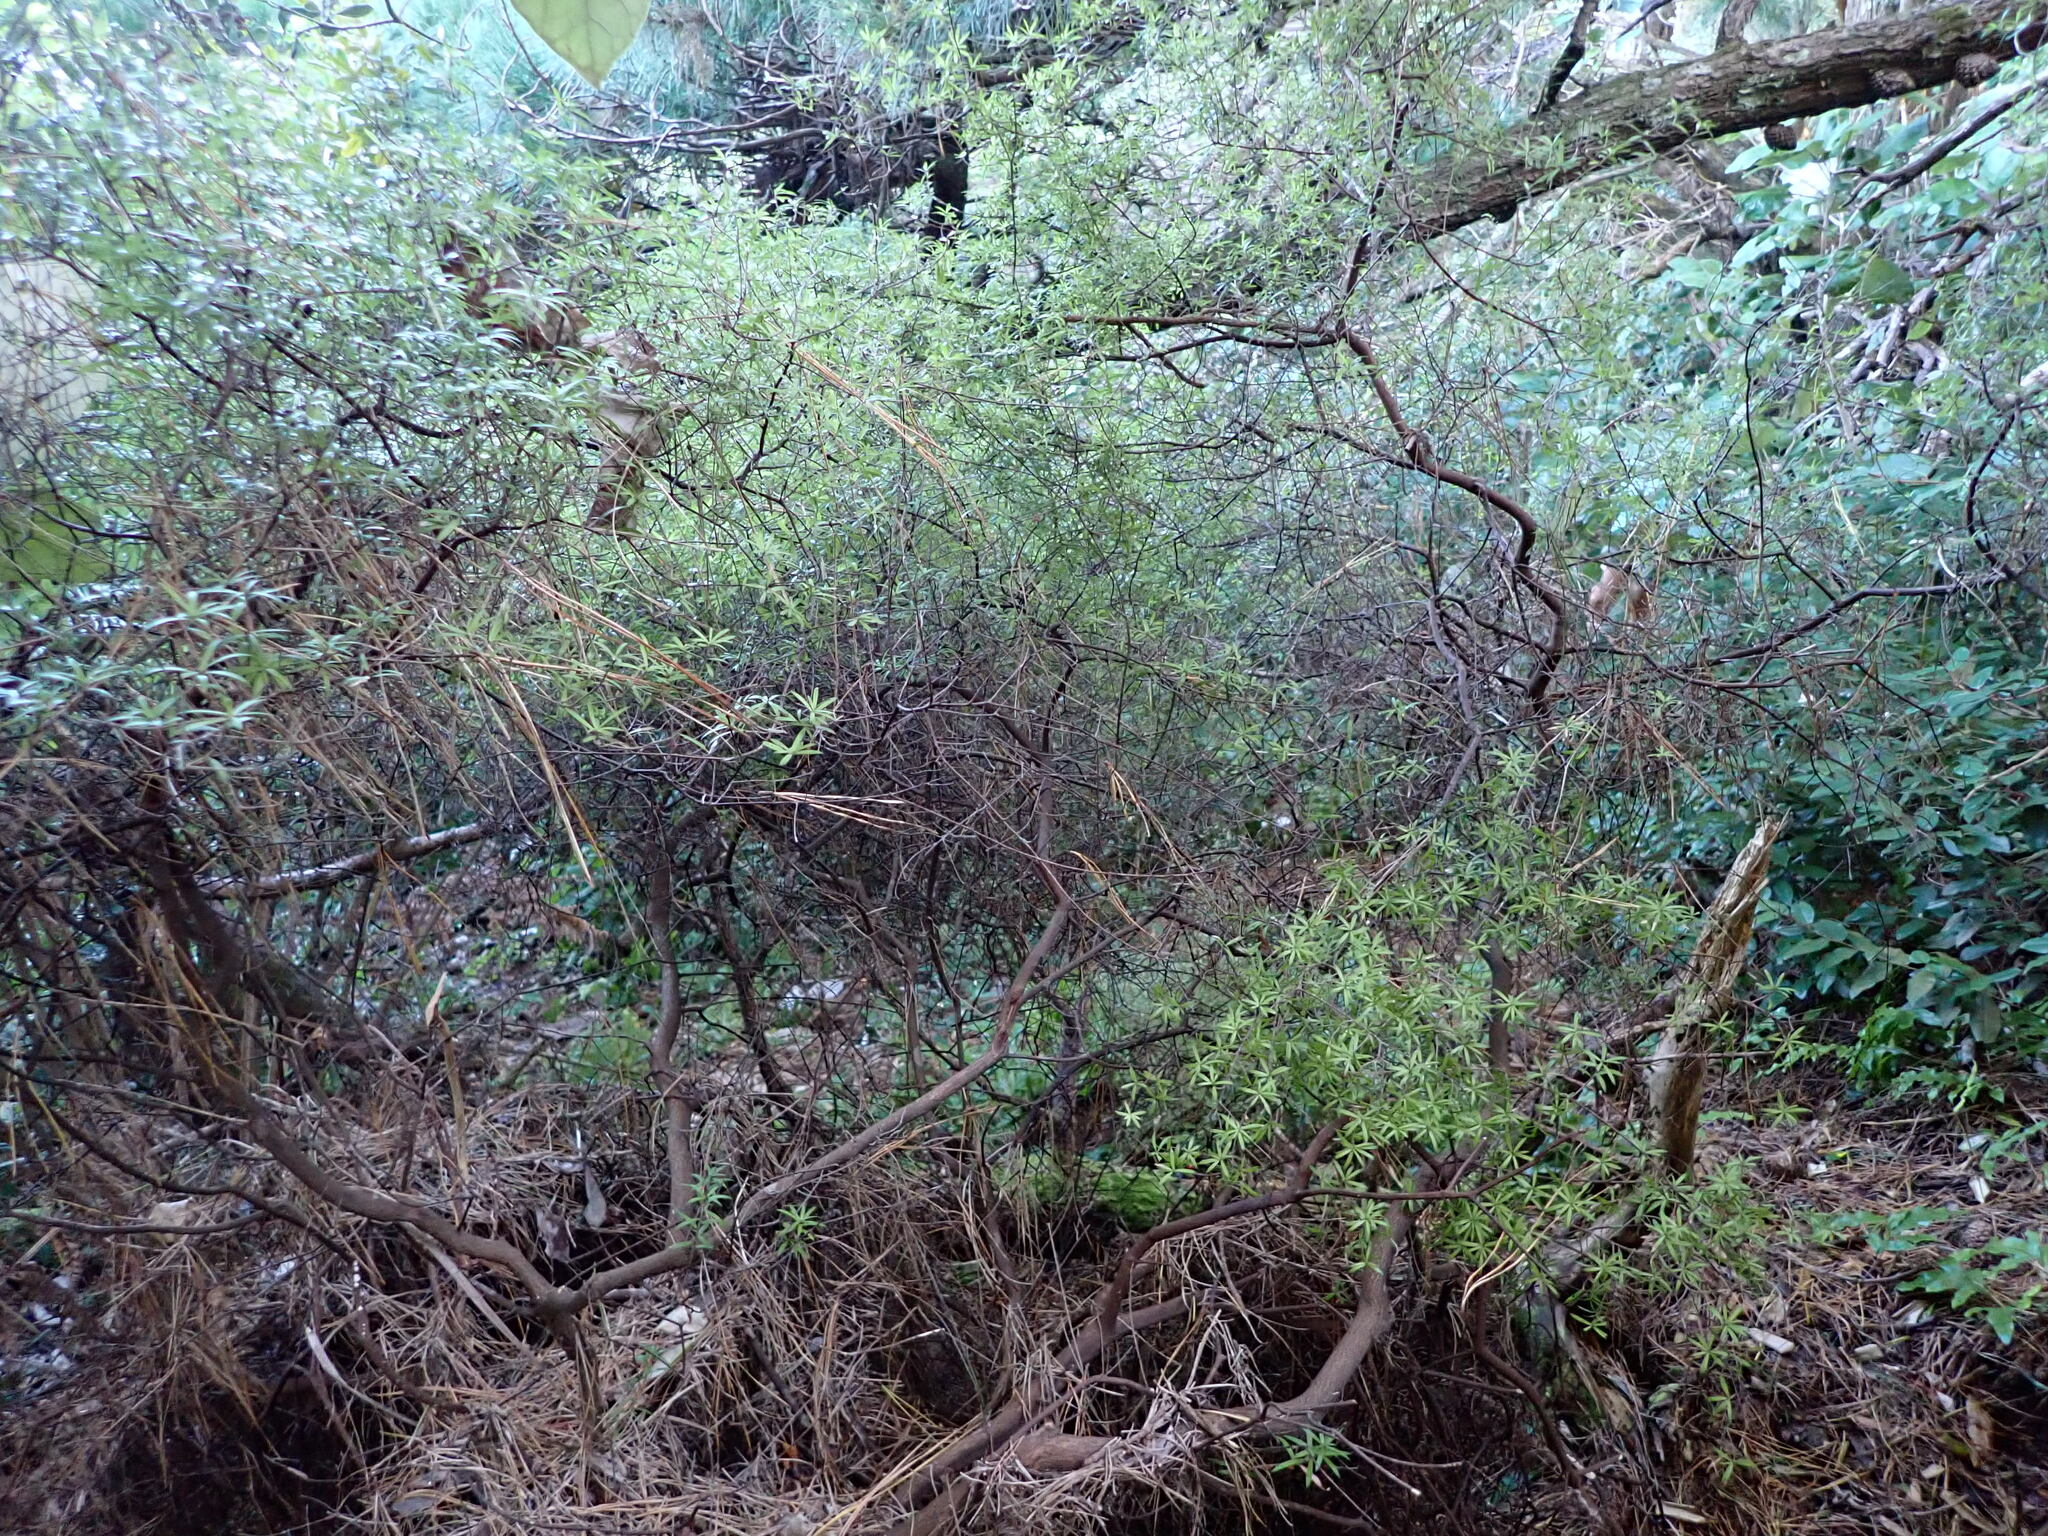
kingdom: Plantae
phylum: Tracheophyta
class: Magnoliopsida
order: Ericales
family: Ericaceae
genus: Leucopogon
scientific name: Leucopogon fasciculatus
